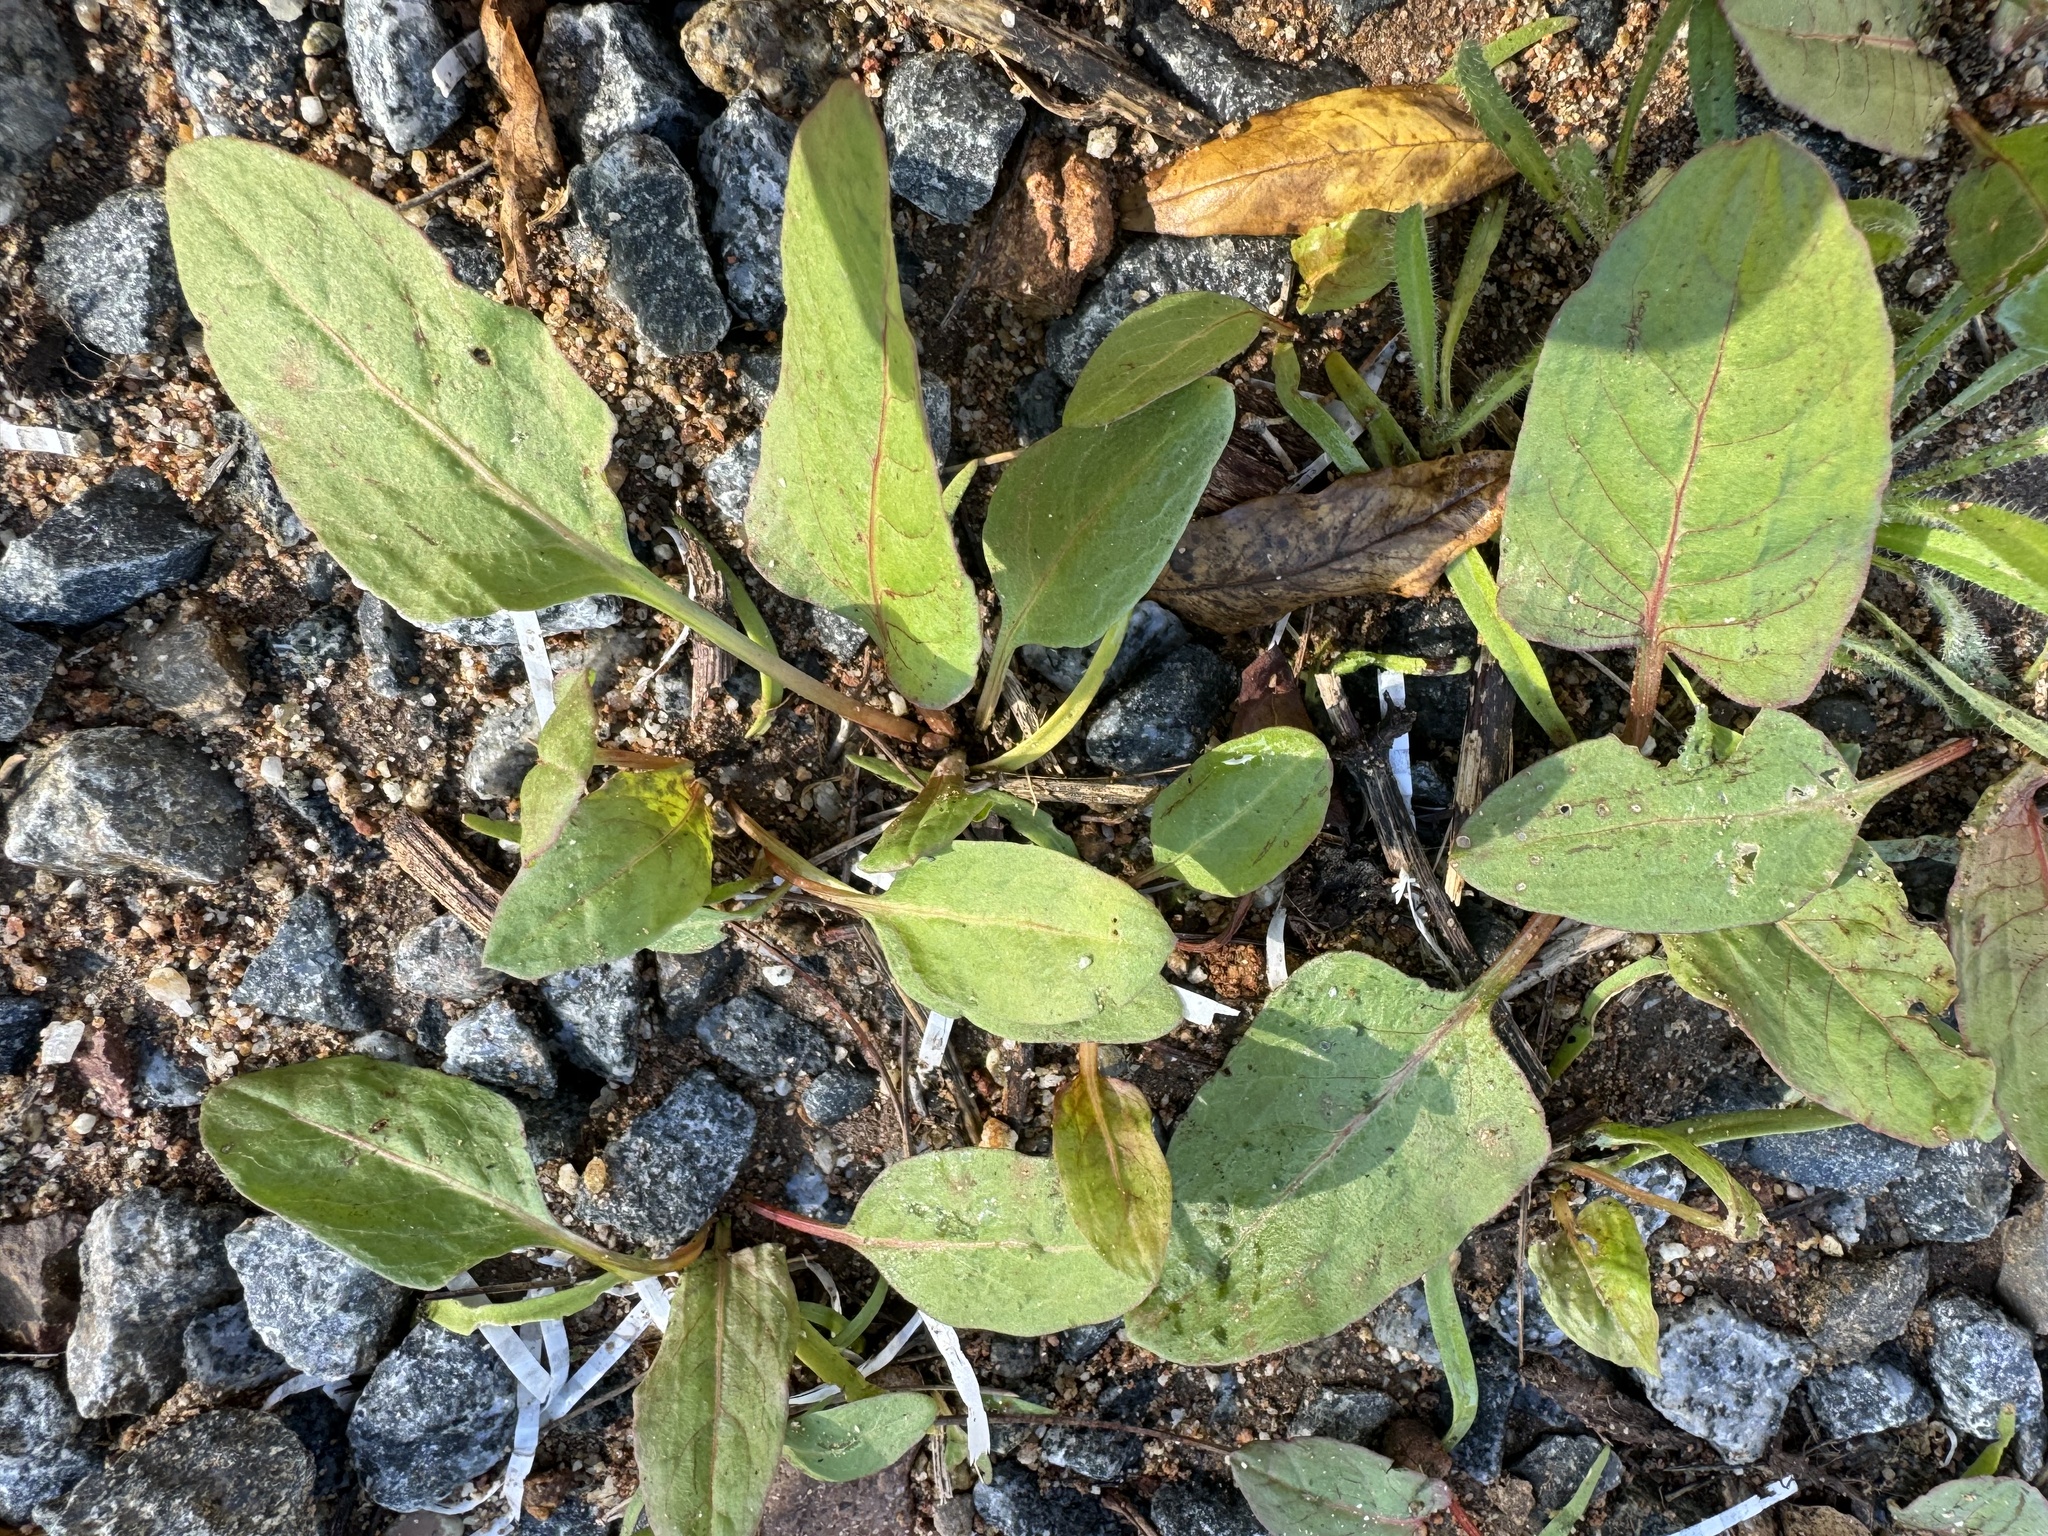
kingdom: Plantae
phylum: Tracheophyta
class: Magnoliopsida
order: Caryophyllales
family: Polygonaceae
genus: Rumex
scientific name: Rumex spinosus
